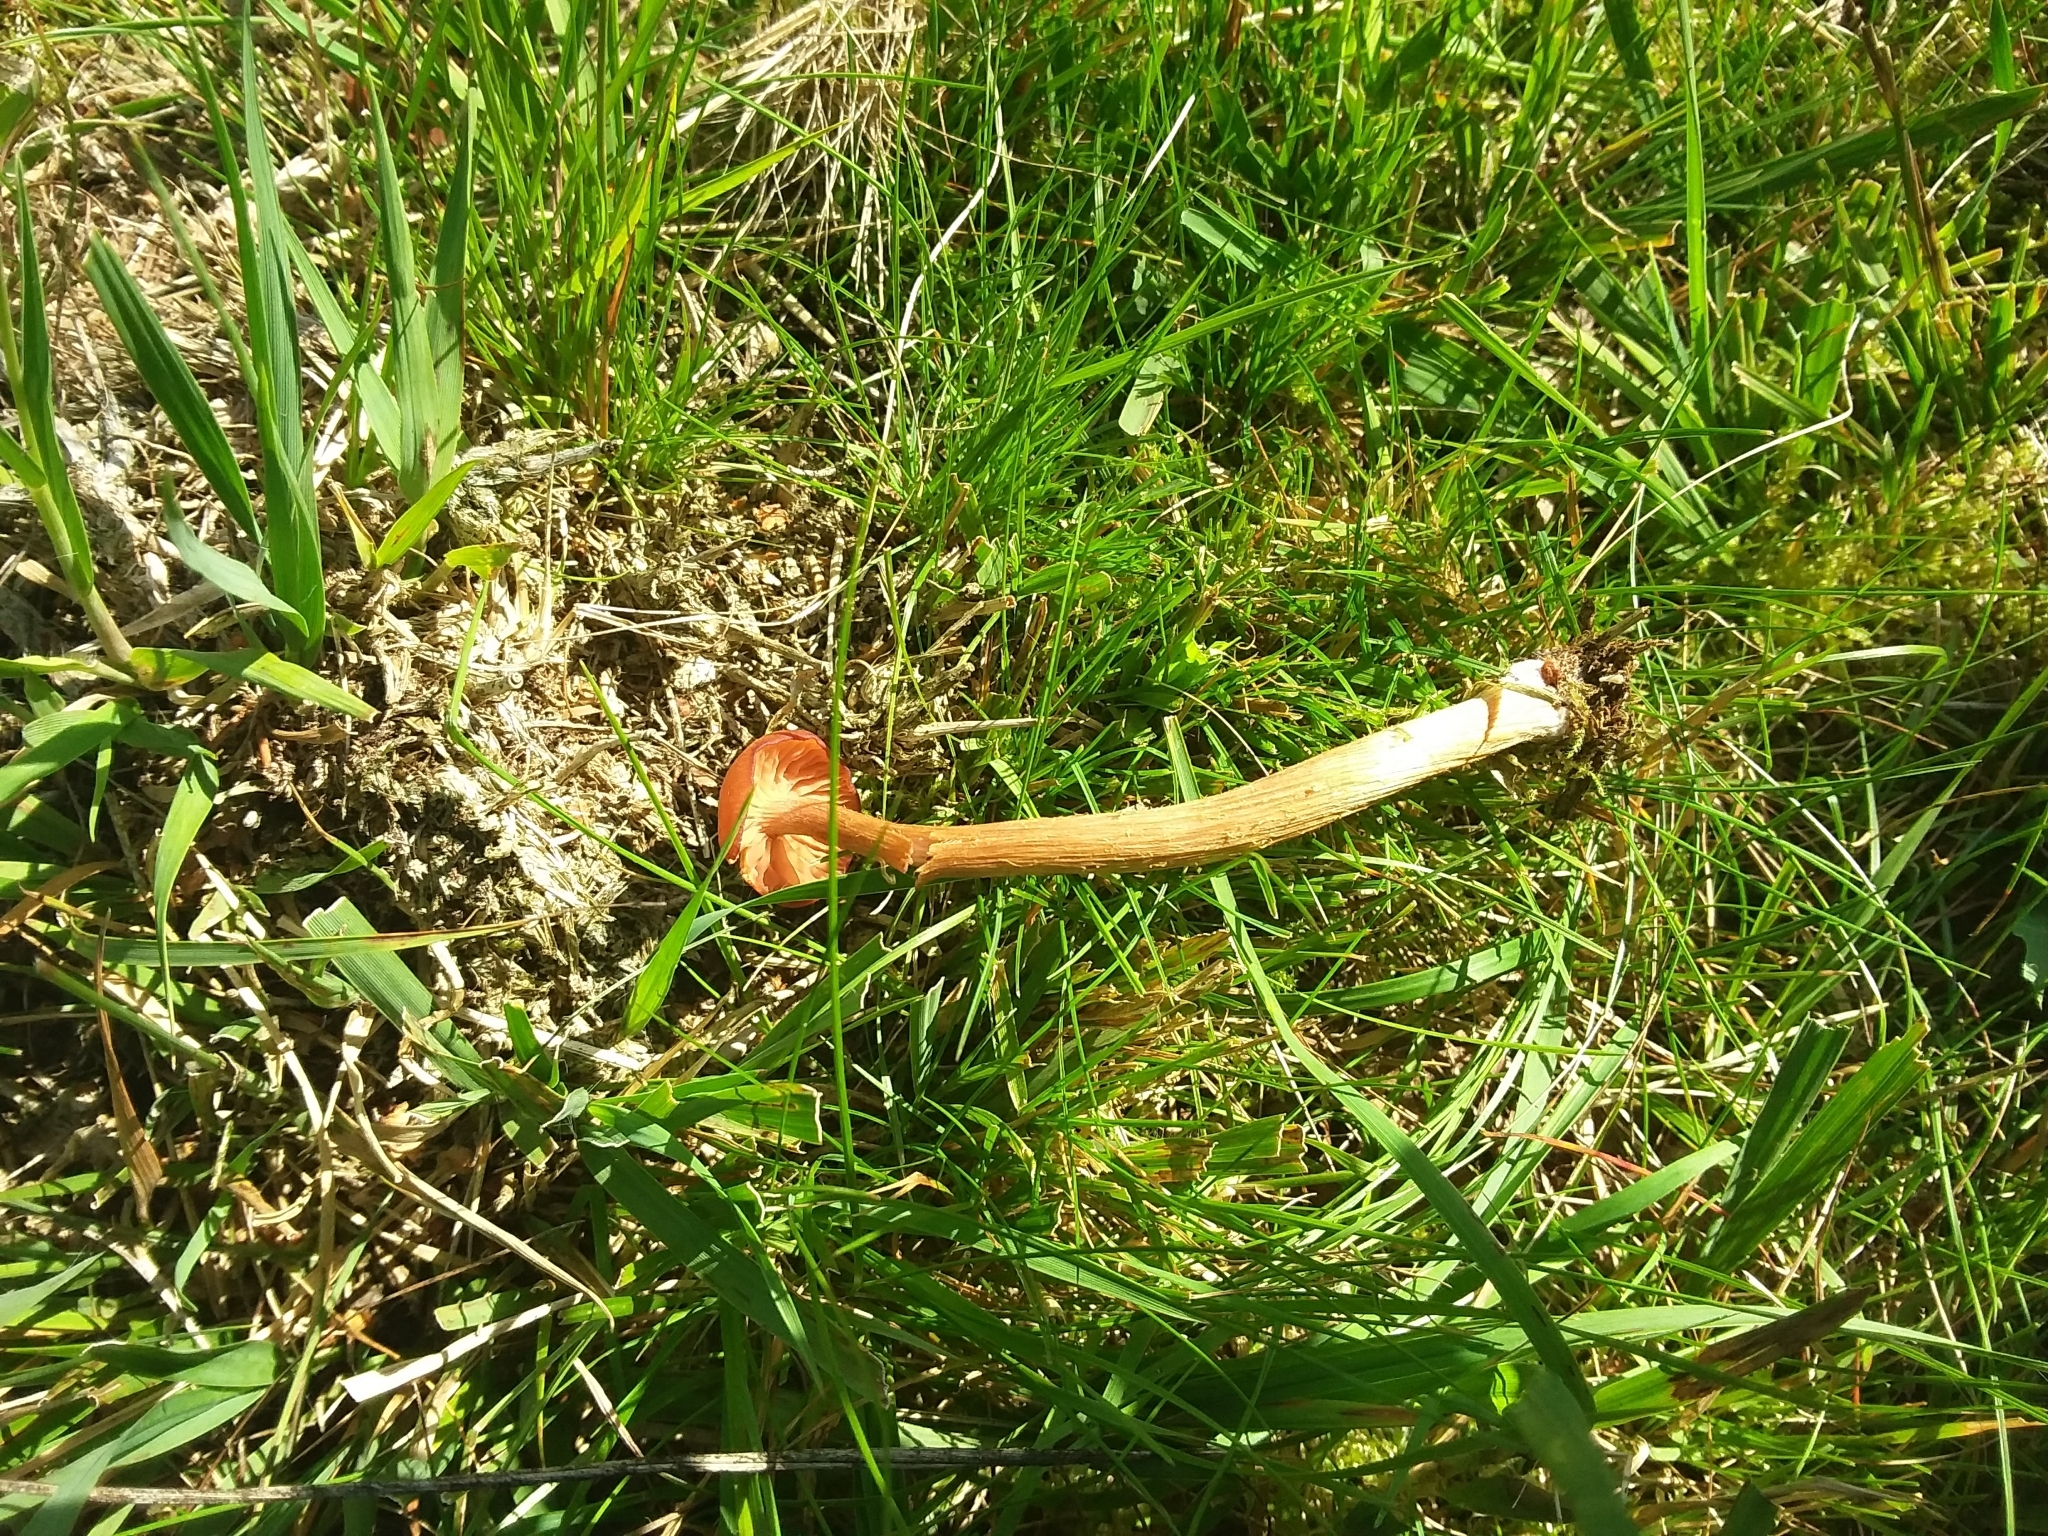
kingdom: Fungi
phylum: Basidiomycota
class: Agaricomycetes
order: Agaricales
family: Hydnangiaceae
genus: Laccaria
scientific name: Laccaria laccata
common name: Deceiver
